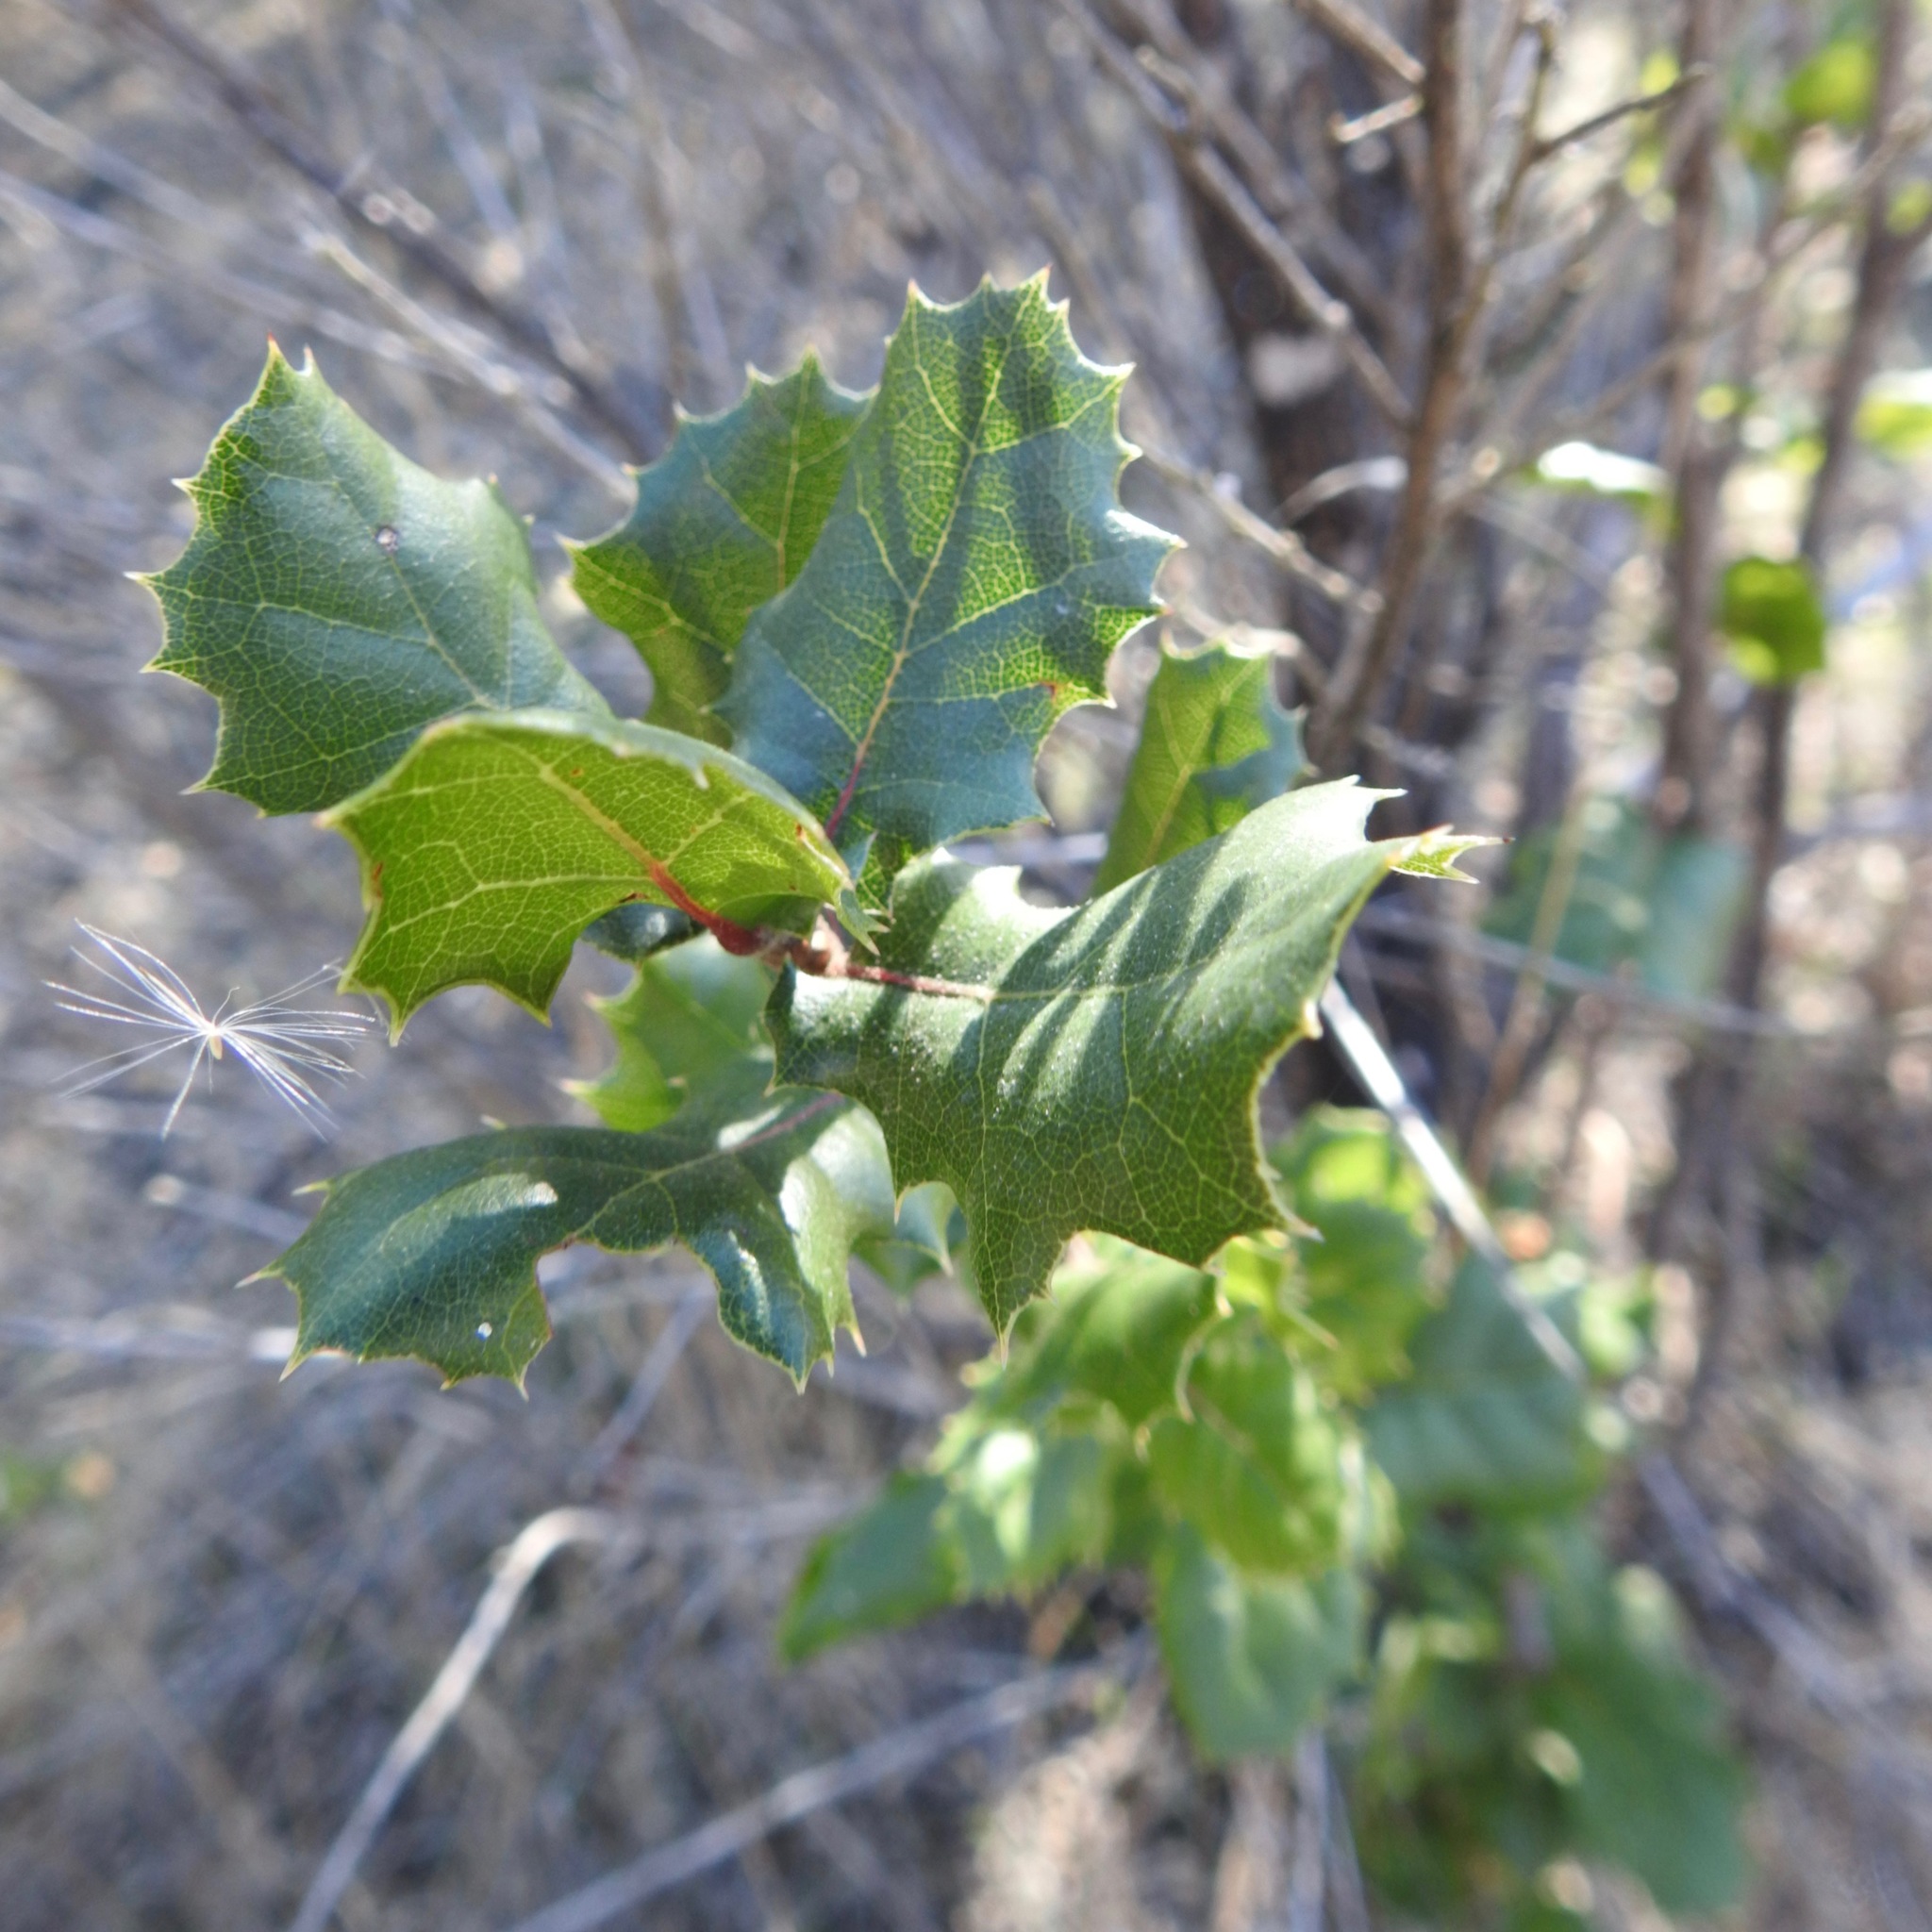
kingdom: Plantae
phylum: Tracheophyta
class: Magnoliopsida
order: Fagales
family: Fagaceae
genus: Quercus
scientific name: Quercus agrifolia
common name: California live oak
